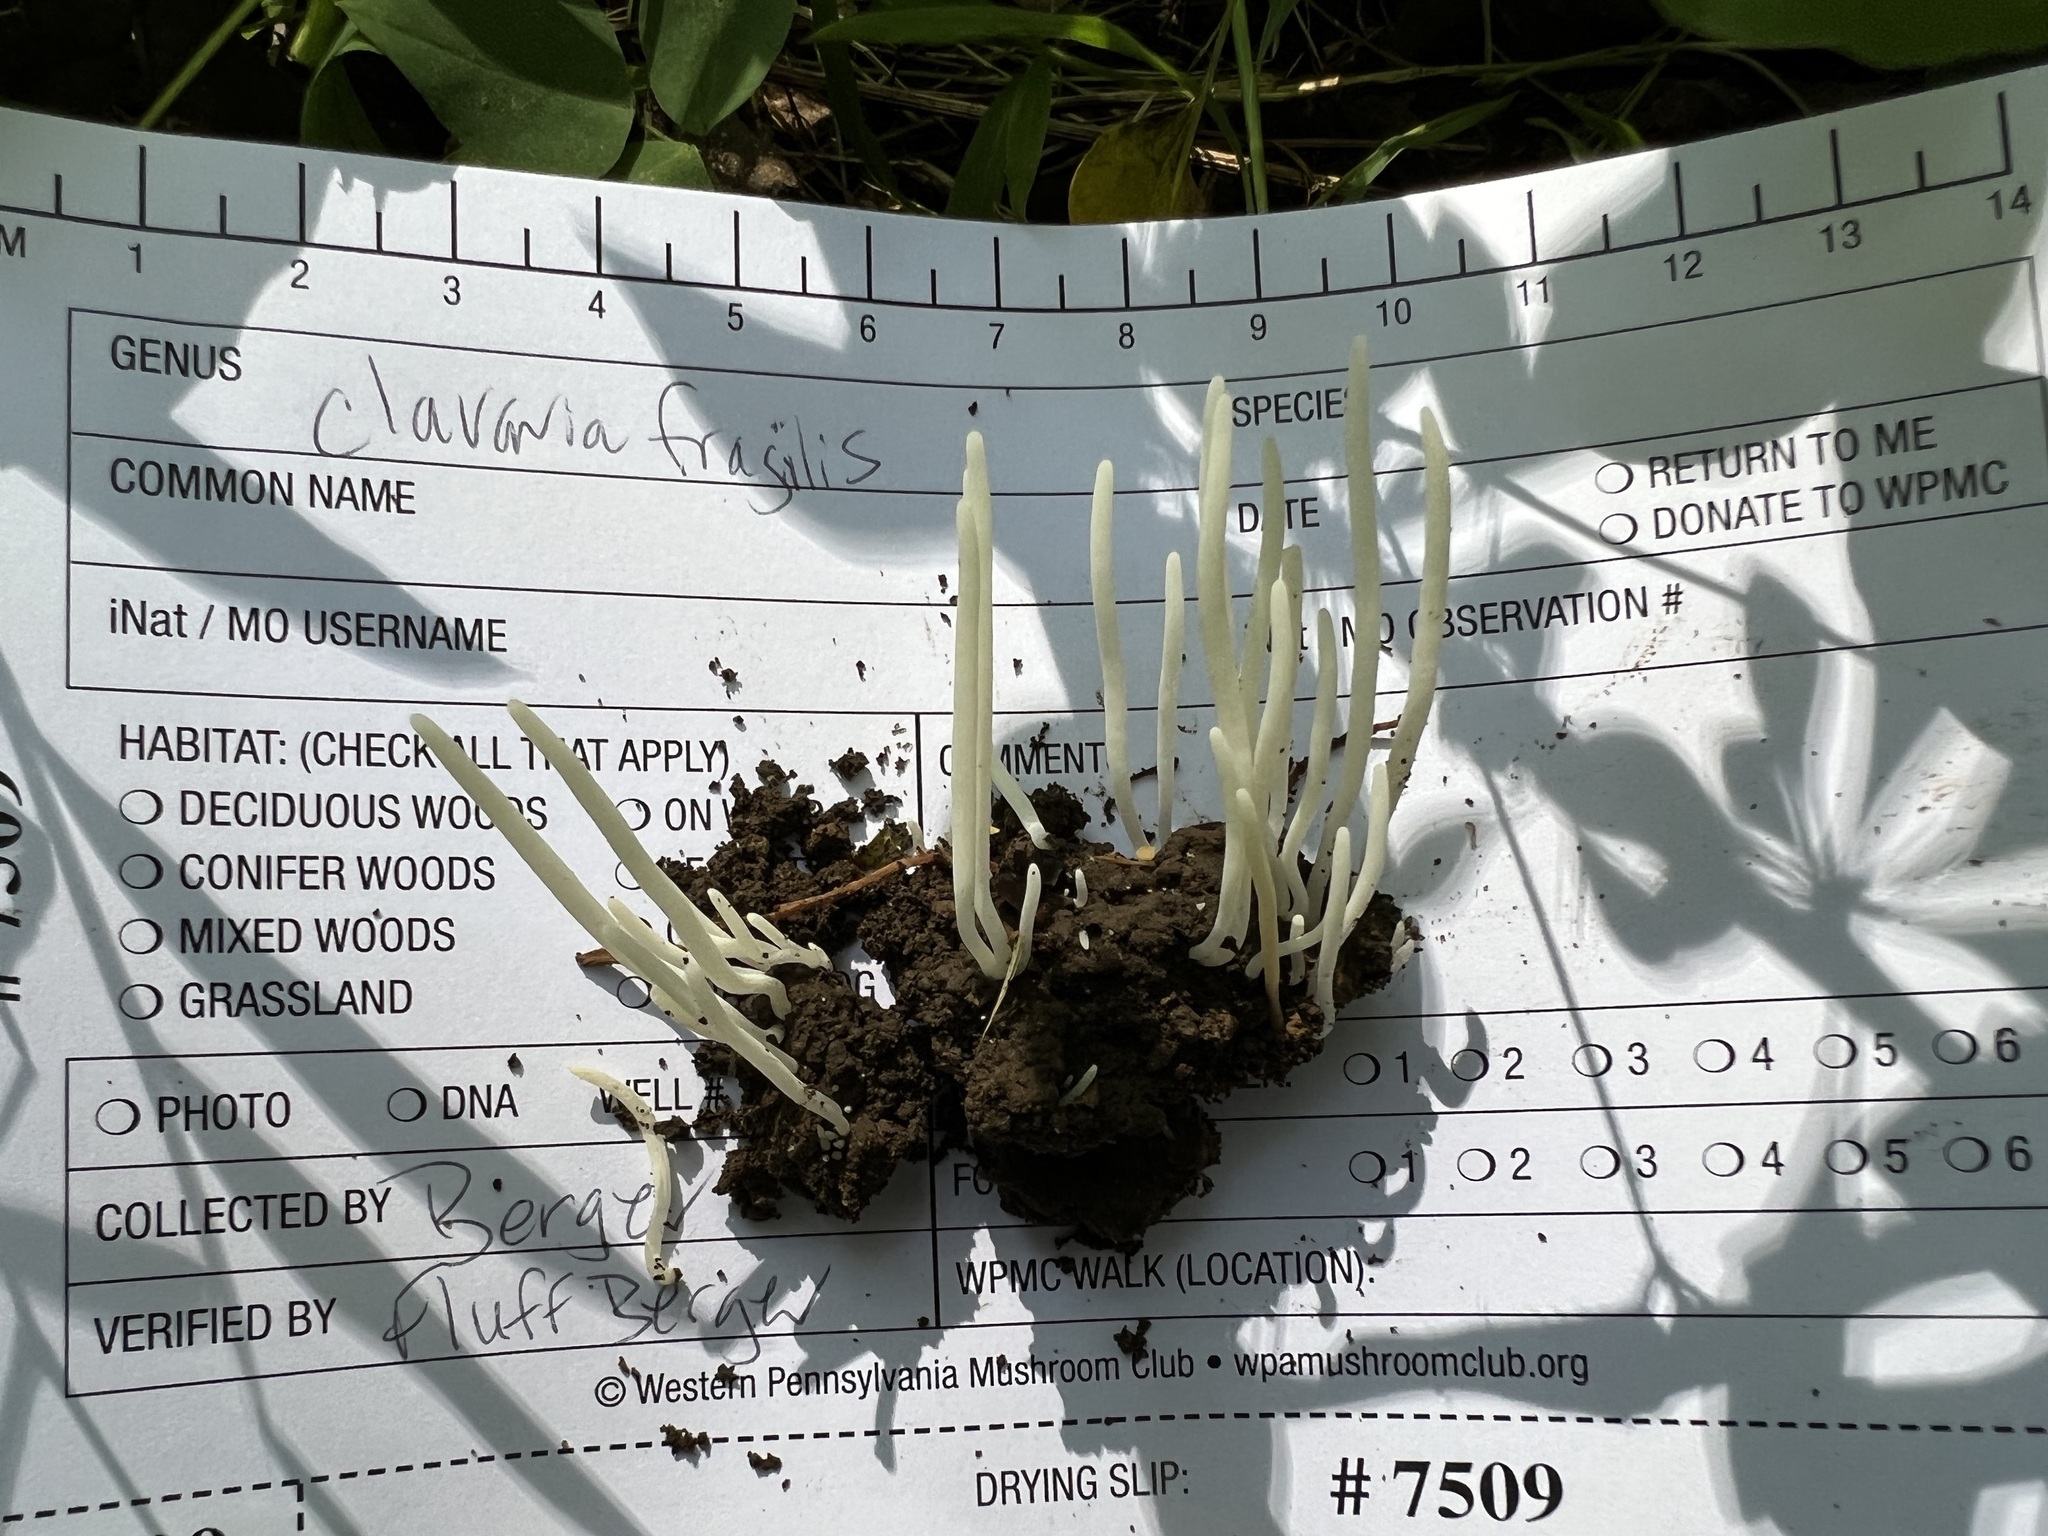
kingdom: Fungi
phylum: Basidiomycota
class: Agaricomycetes
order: Agaricales
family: Clavariaceae
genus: Clavaria
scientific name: Clavaria fragilis
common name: White spindles
